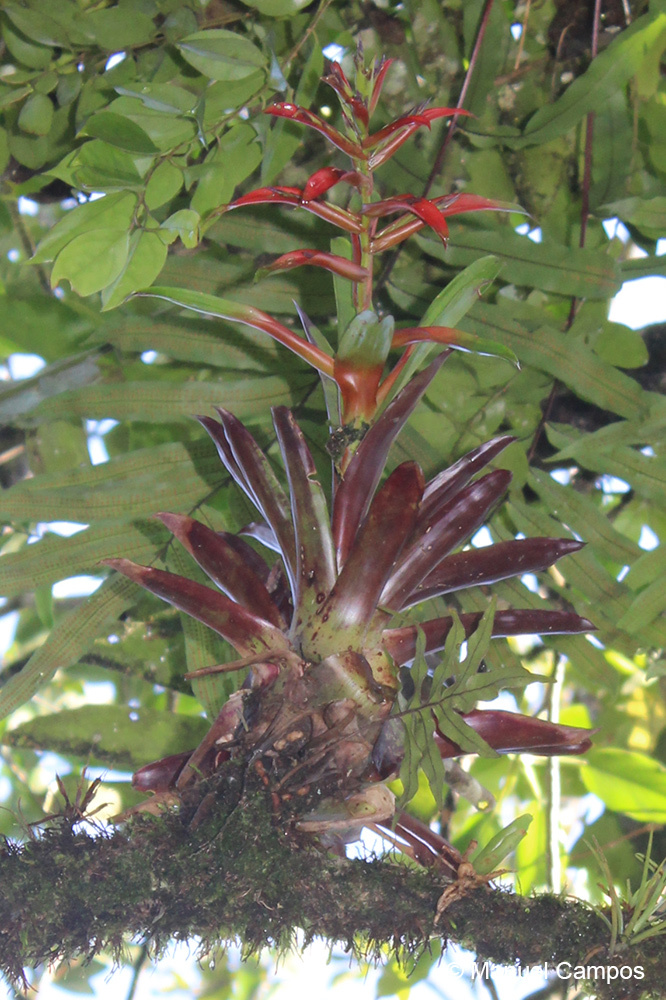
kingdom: Plantae
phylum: Tracheophyta
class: Liliopsida
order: Poales
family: Bromeliaceae
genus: Tillandsia
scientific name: Tillandsia leiboldiana
